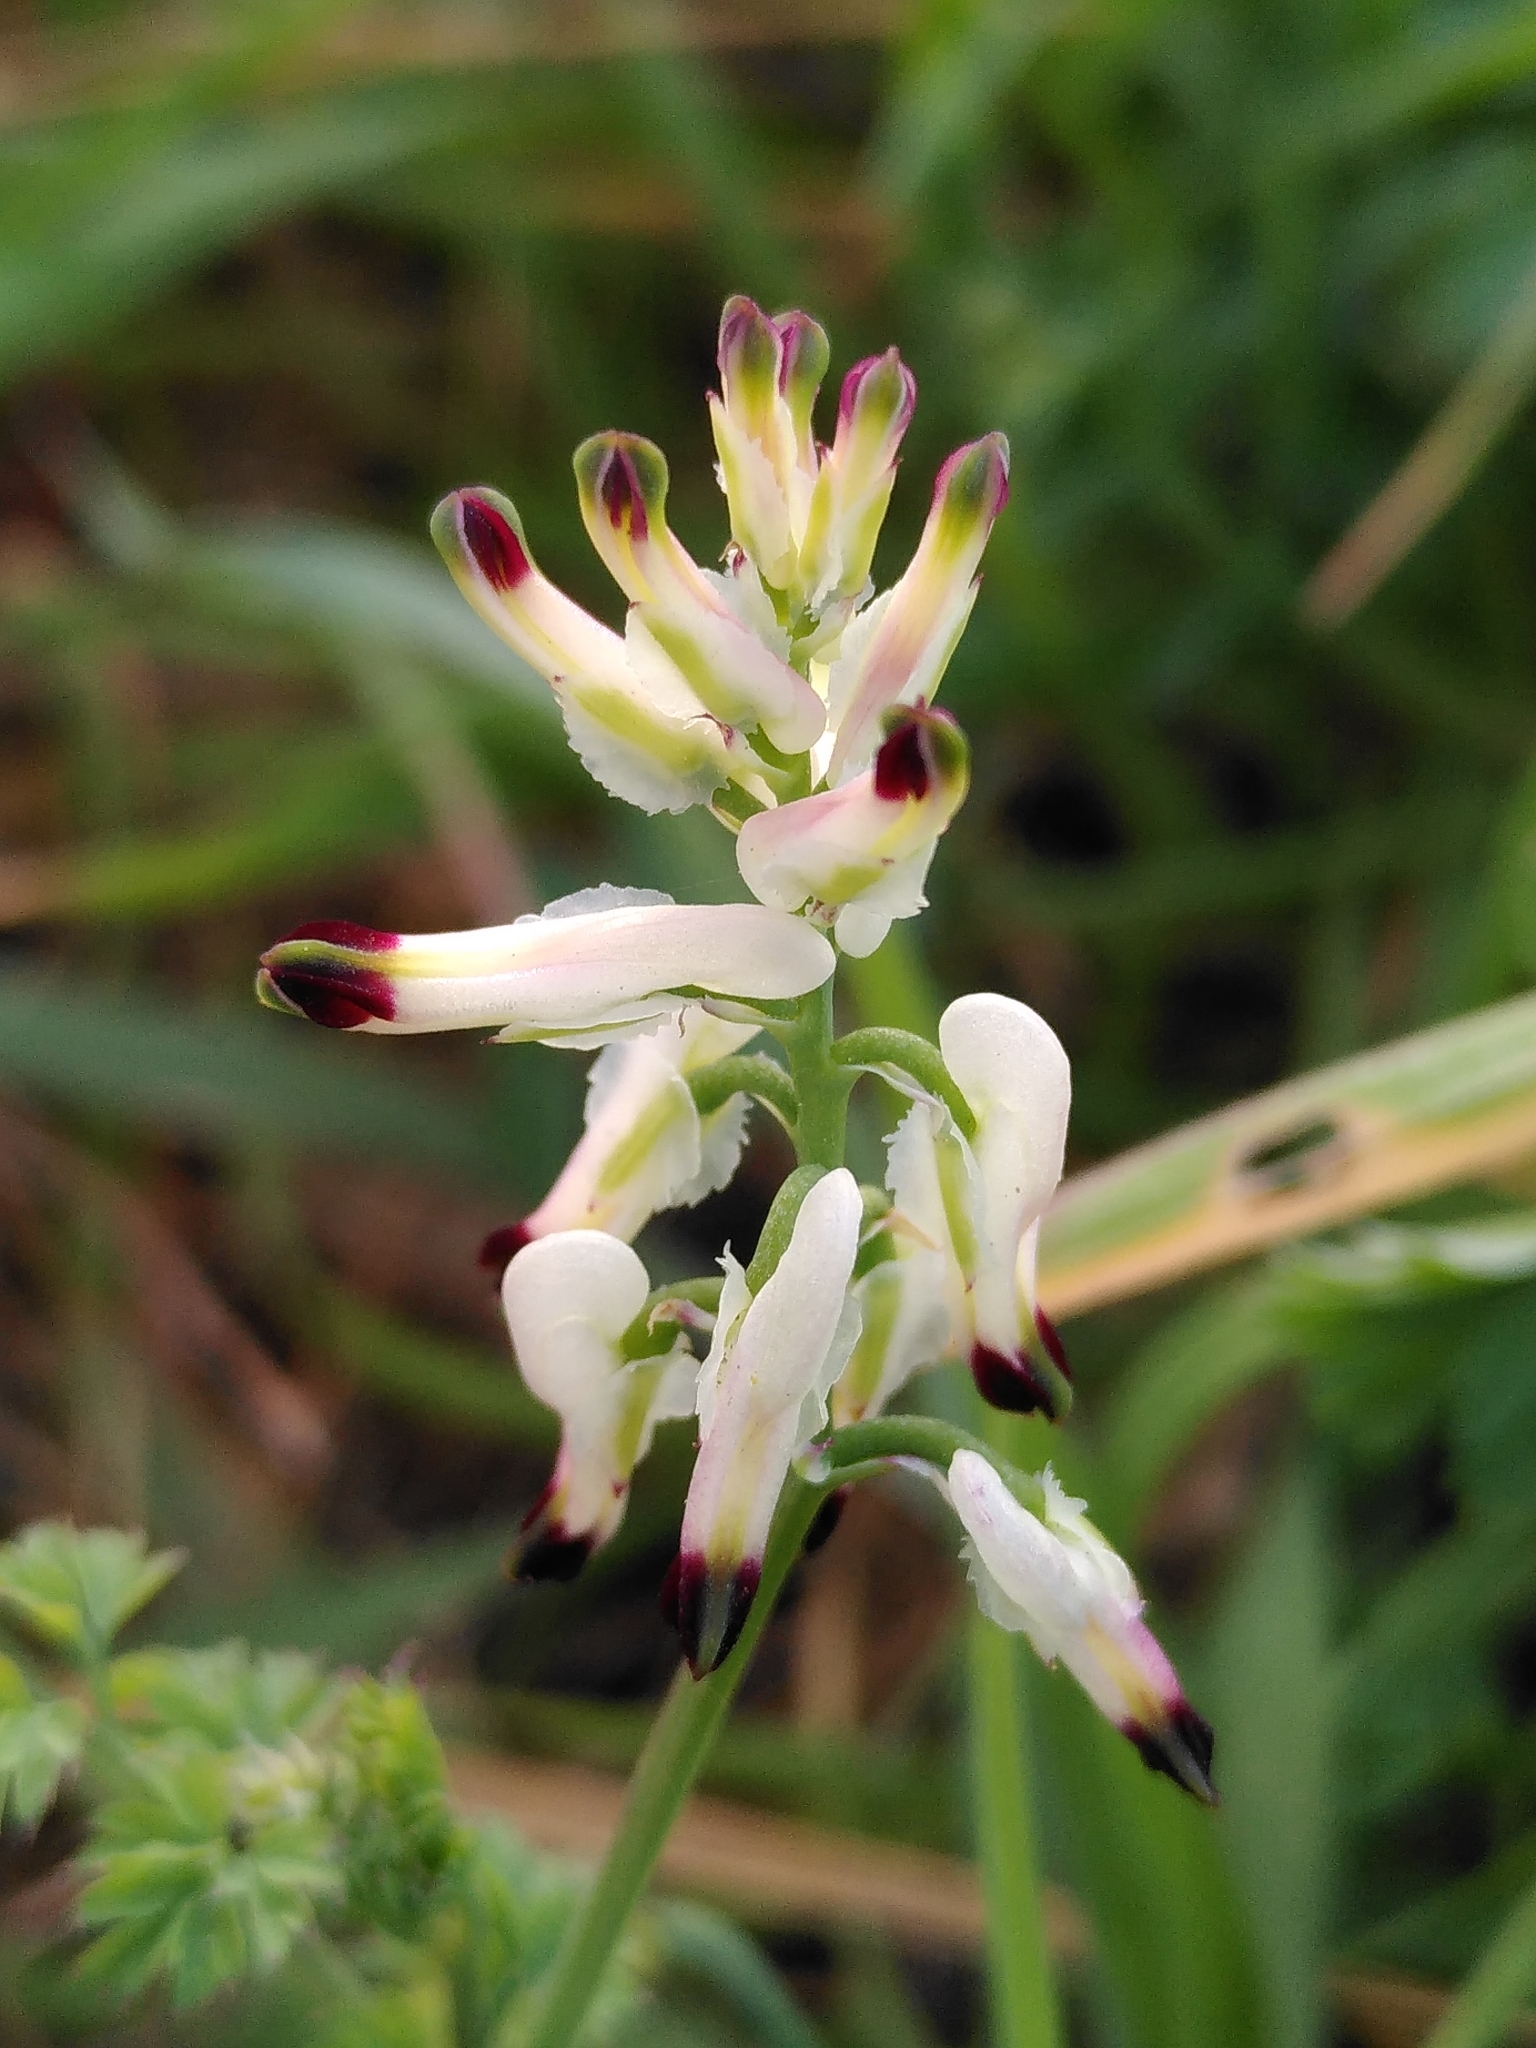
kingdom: Plantae
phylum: Tracheophyta
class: Magnoliopsida
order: Ranunculales
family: Papaveraceae
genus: Fumaria
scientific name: Fumaria capreolata
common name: White ramping-fumitory
